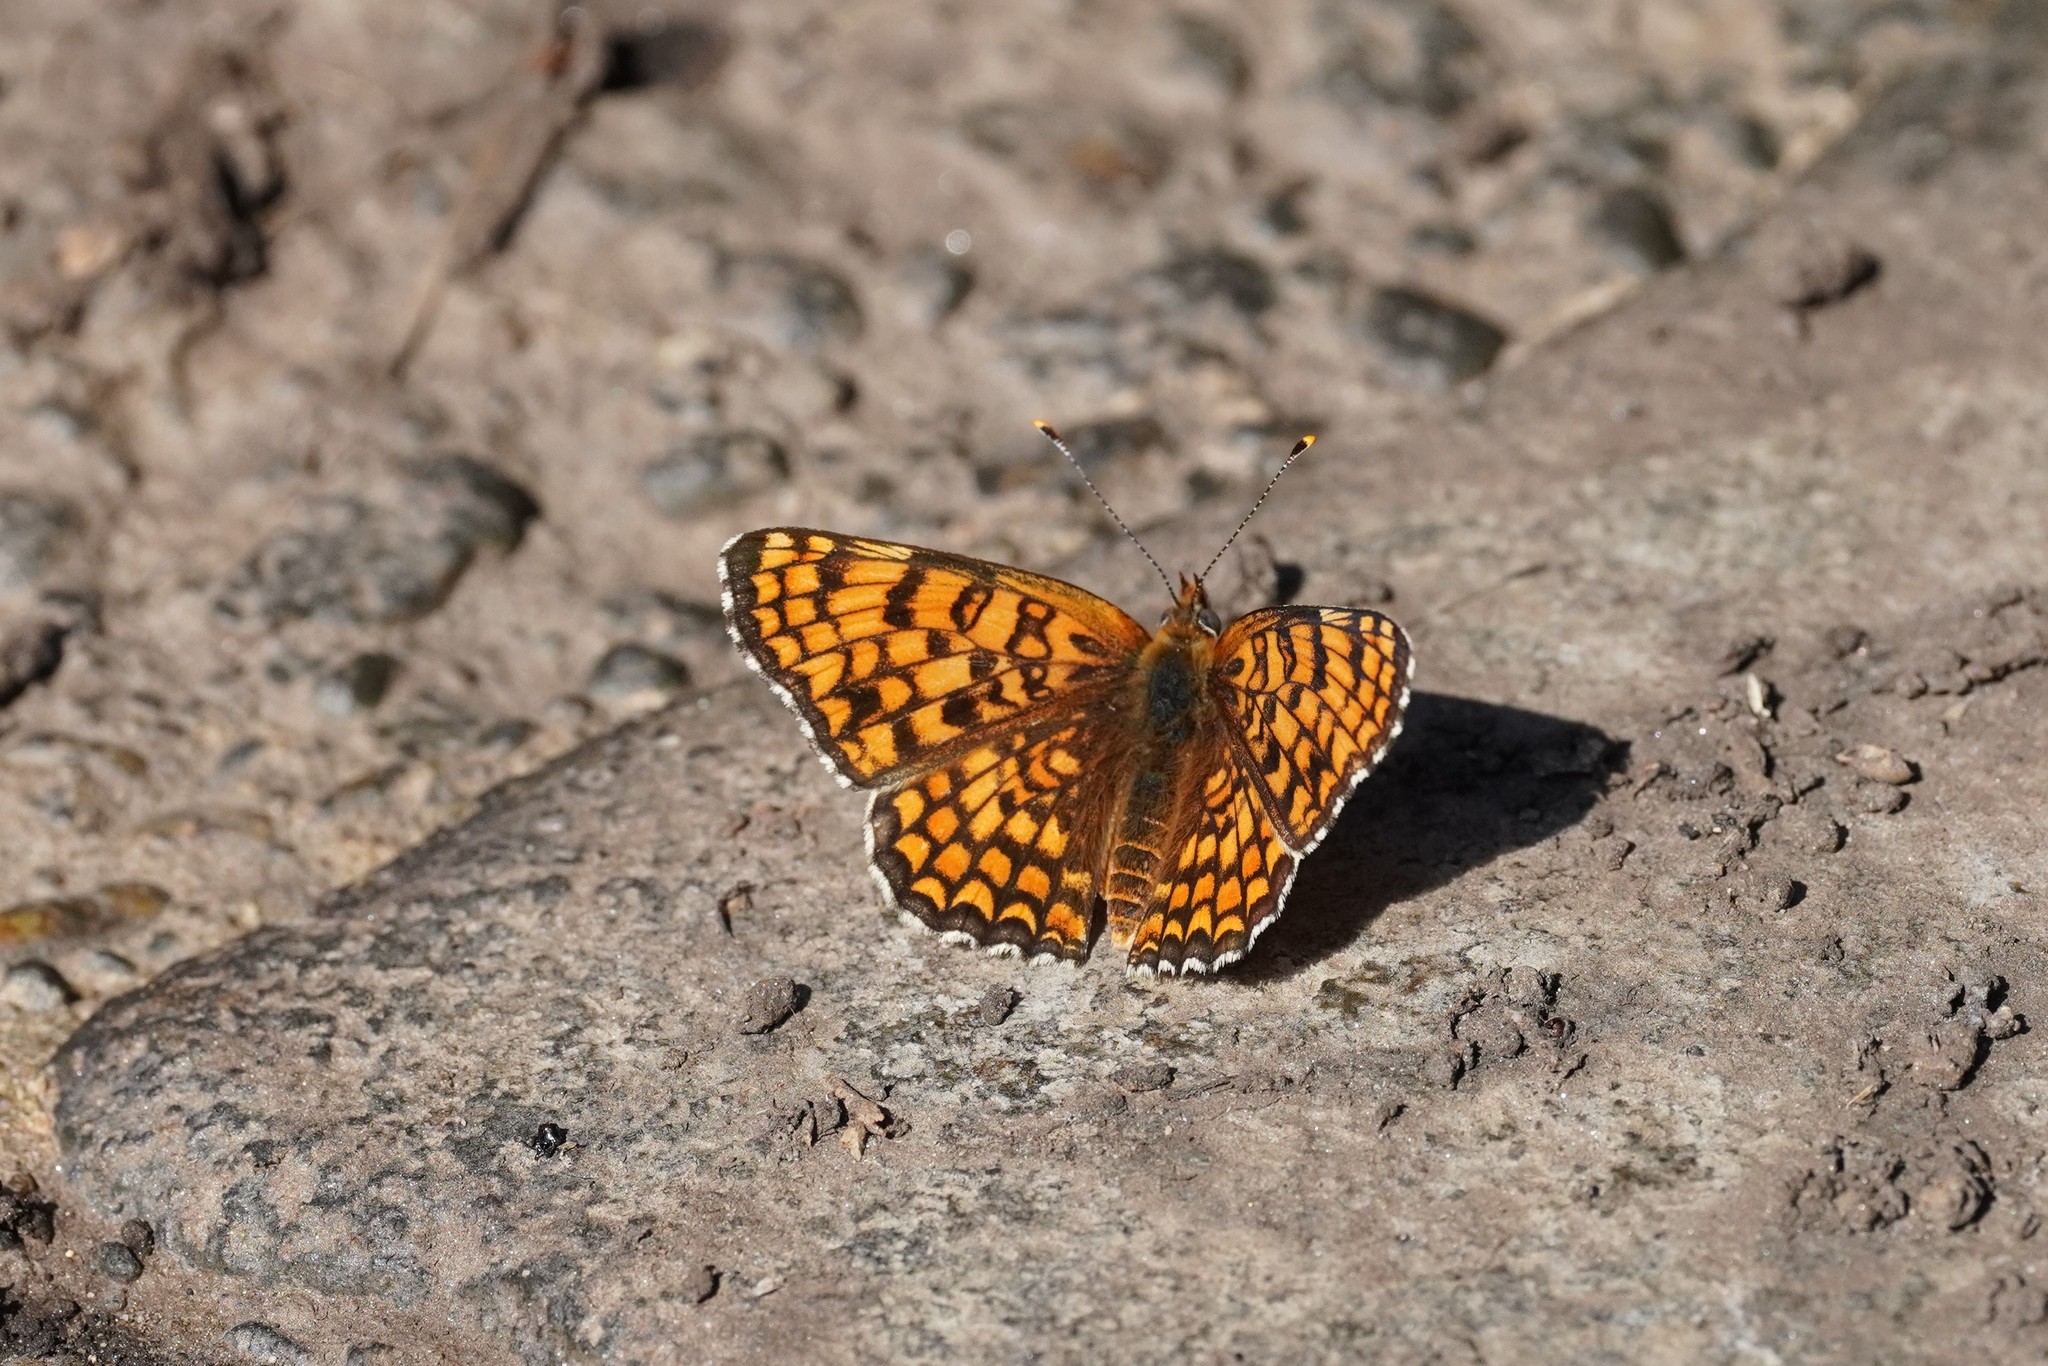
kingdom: Animalia
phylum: Arthropoda
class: Insecta
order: Lepidoptera
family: Nymphalidae
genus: Melitaea
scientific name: Melitaea phoebe
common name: Knapweed fritillary
